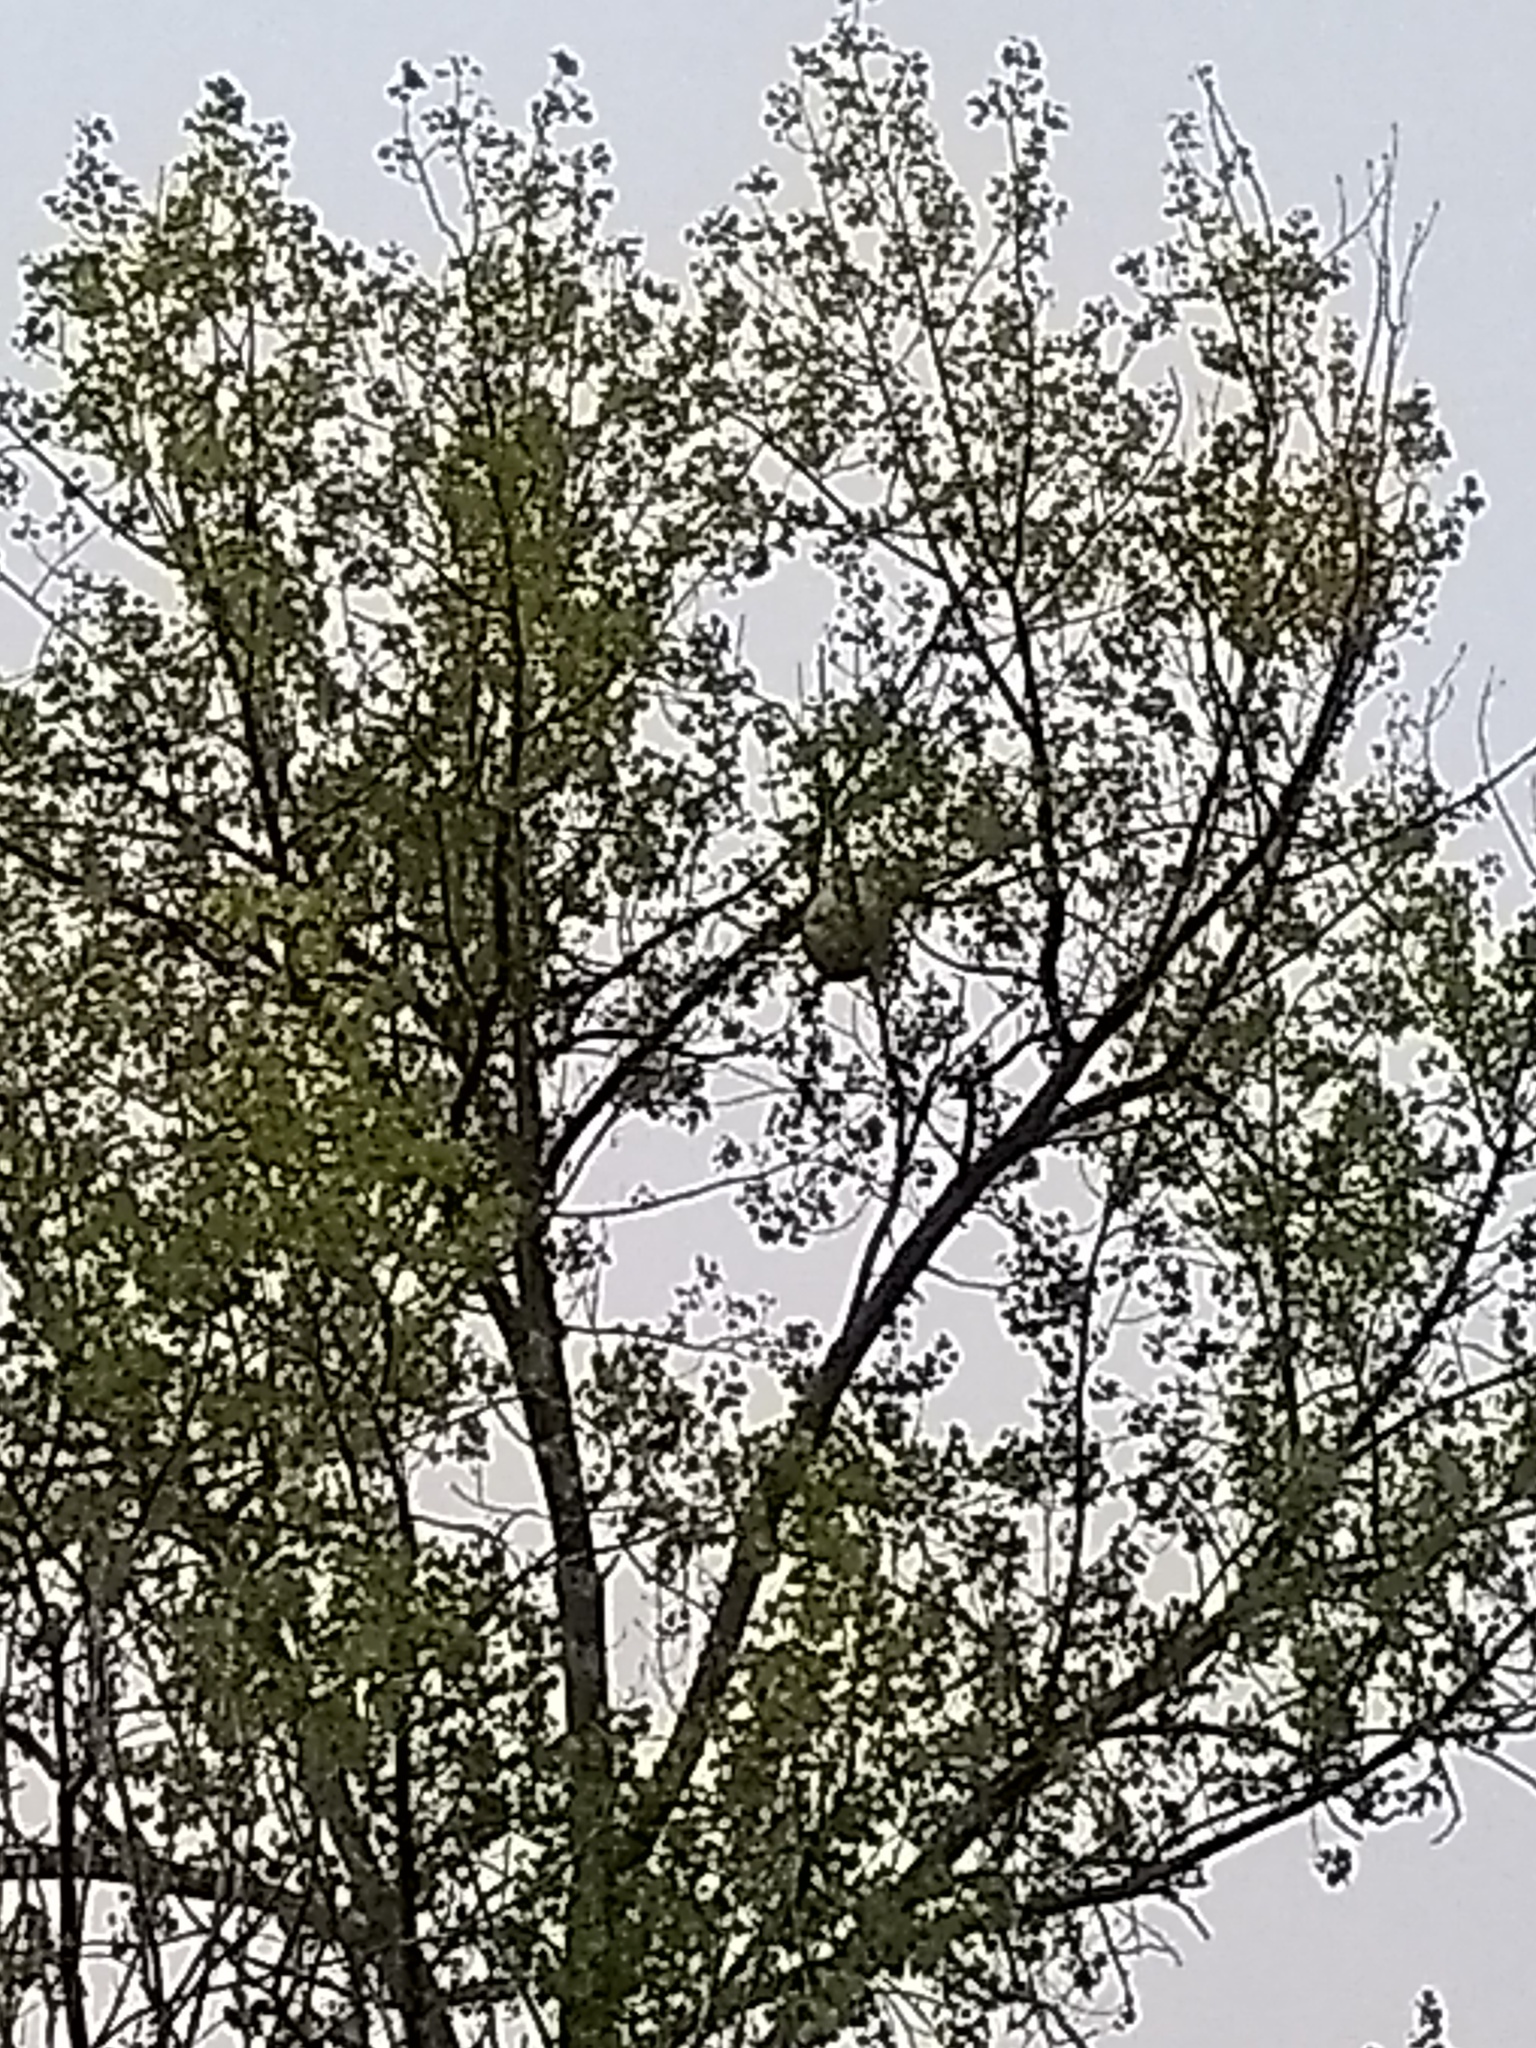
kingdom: Animalia
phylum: Arthropoda
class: Insecta
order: Hymenoptera
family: Vespidae
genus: Vespa
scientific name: Vespa velutina
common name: Asian hornet
